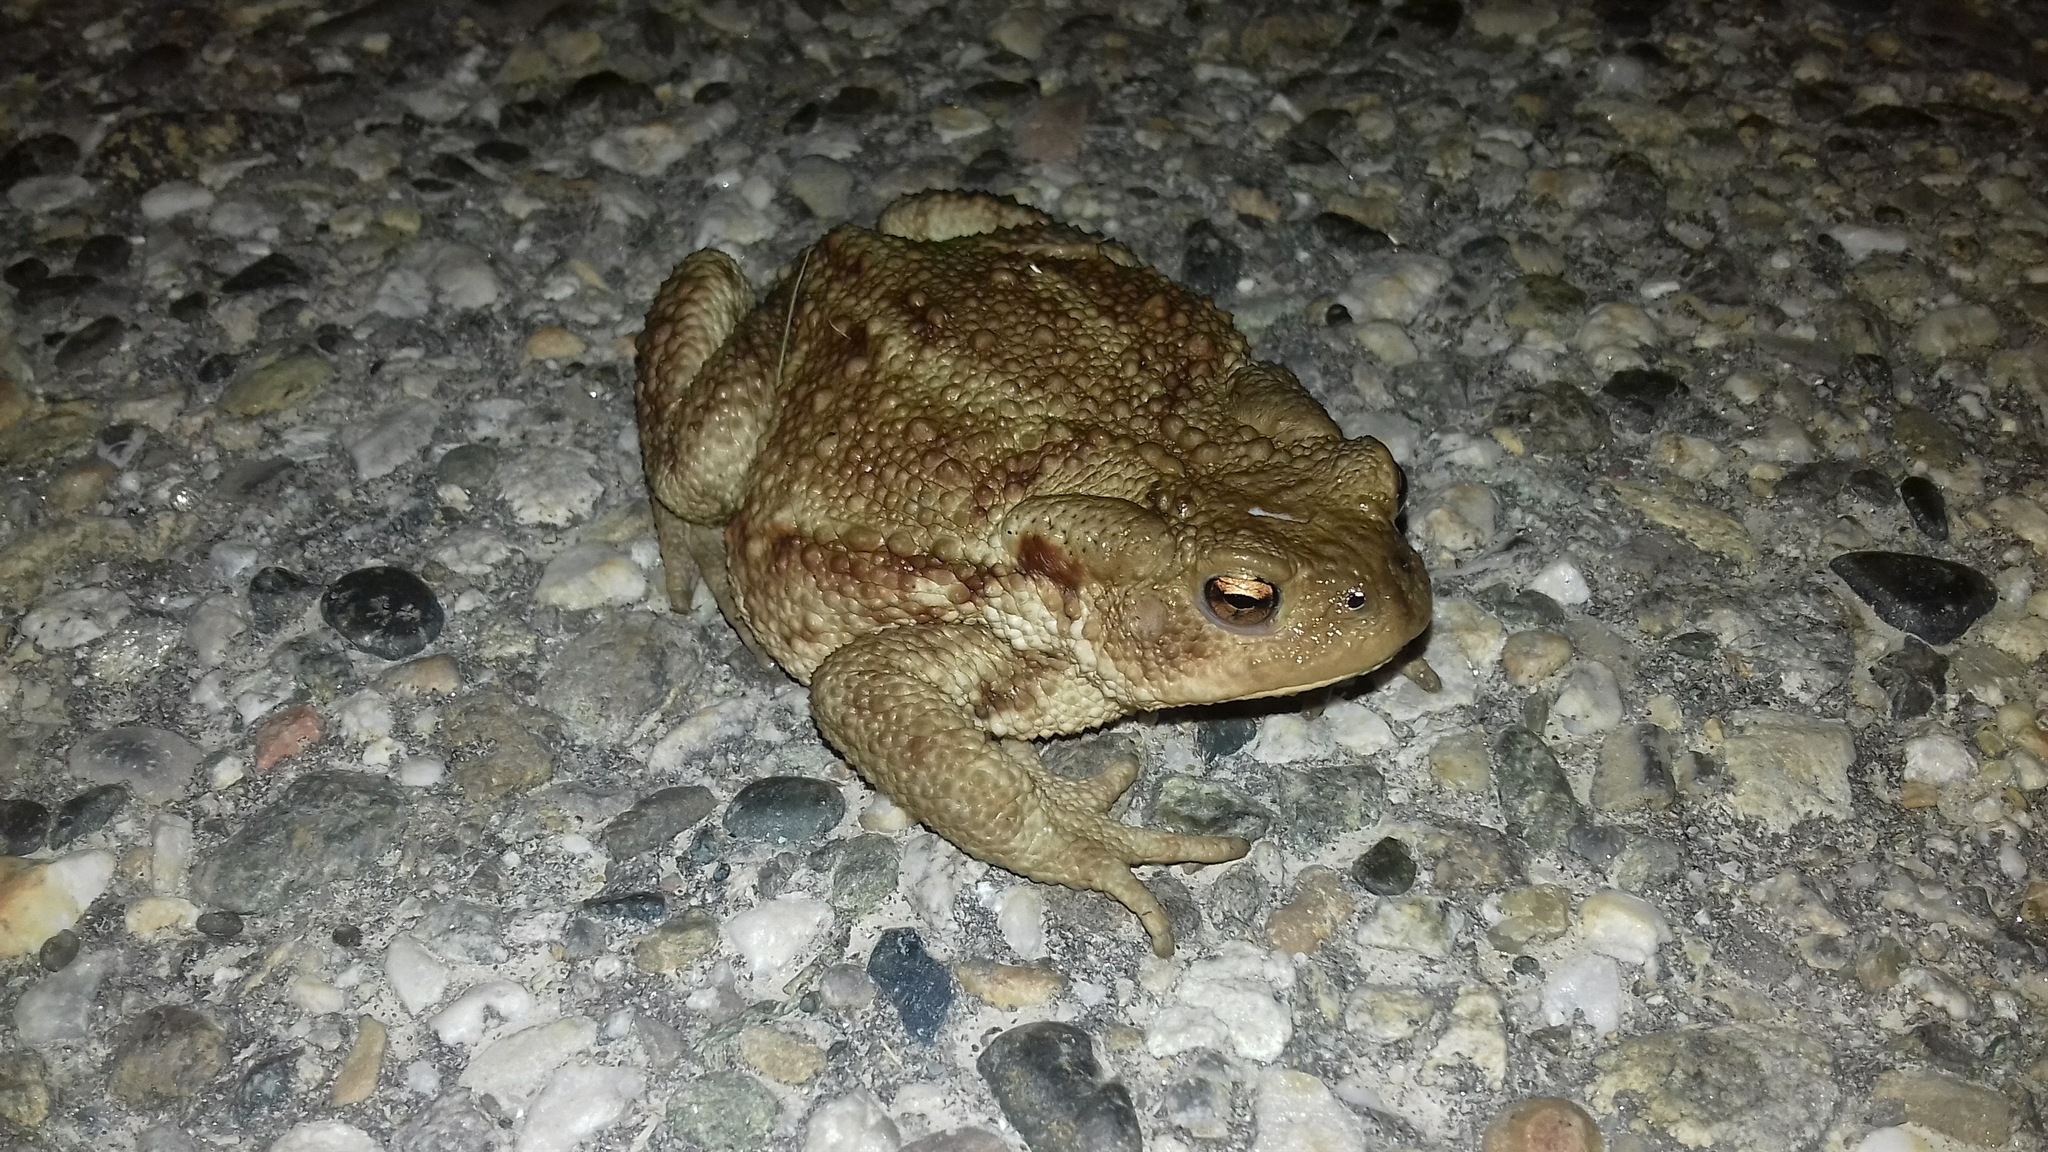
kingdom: Animalia
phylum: Chordata
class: Amphibia
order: Anura
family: Bufonidae
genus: Bufo
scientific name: Bufo bufo
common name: Common toad
